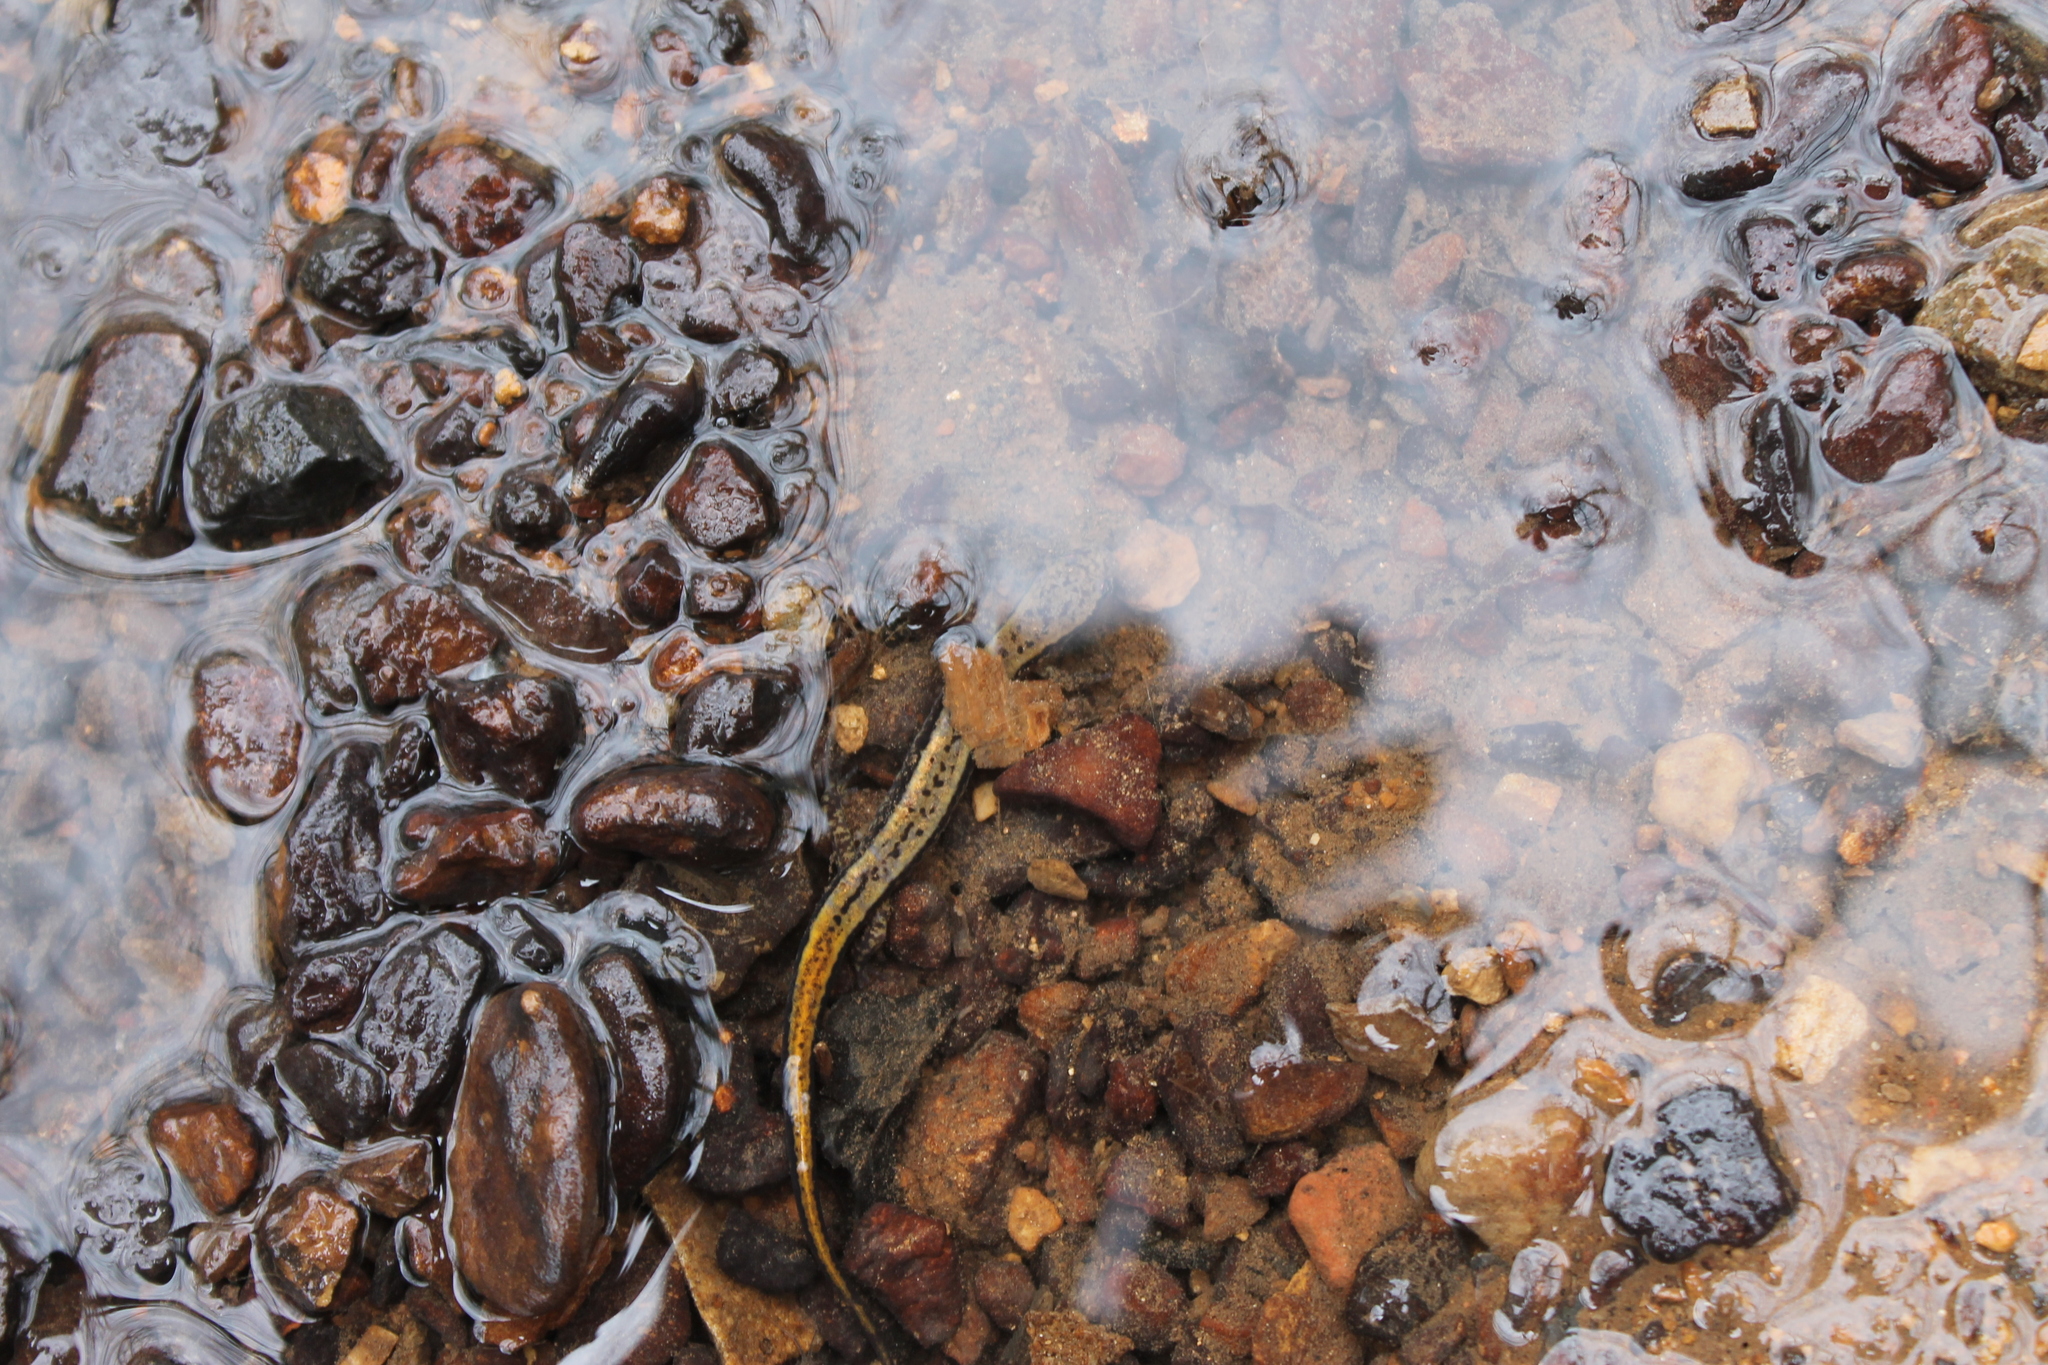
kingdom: Animalia
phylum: Chordata
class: Amphibia
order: Caudata
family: Plethodontidae
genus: Eurycea
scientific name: Eurycea cirrigera
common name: Southern two-lined salamander
